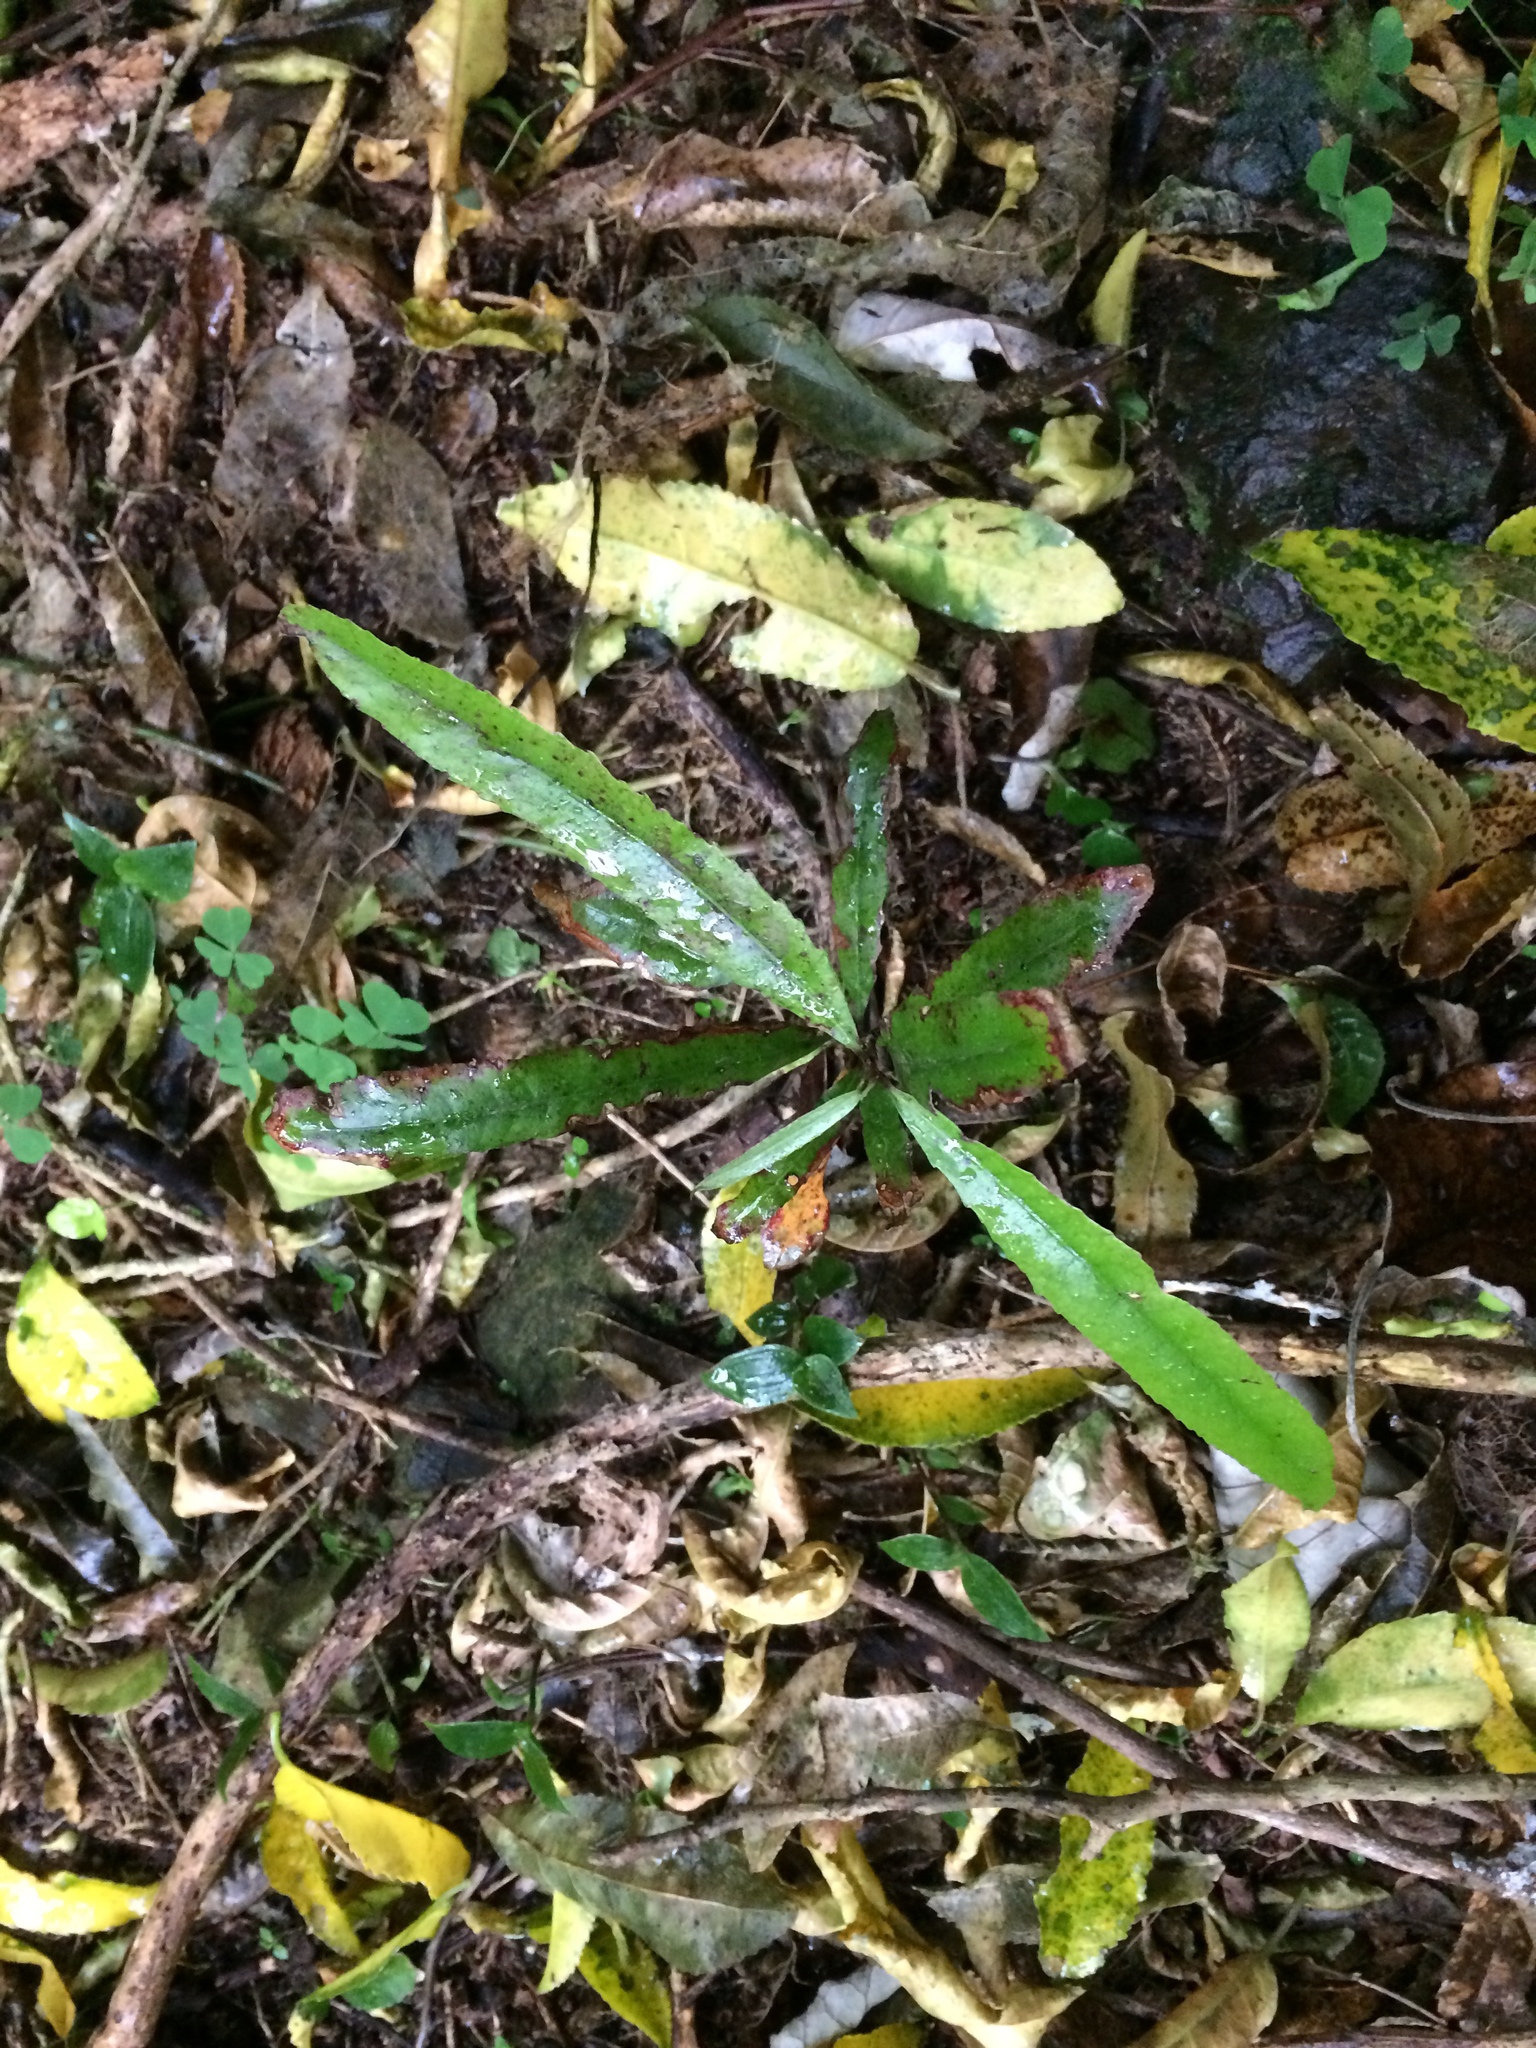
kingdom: Plantae
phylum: Tracheophyta
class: Magnoliopsida
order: Oxalidales
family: Elaeocarpaceae
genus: Elaeocarpus
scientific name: Elaeocarpus dentatus
